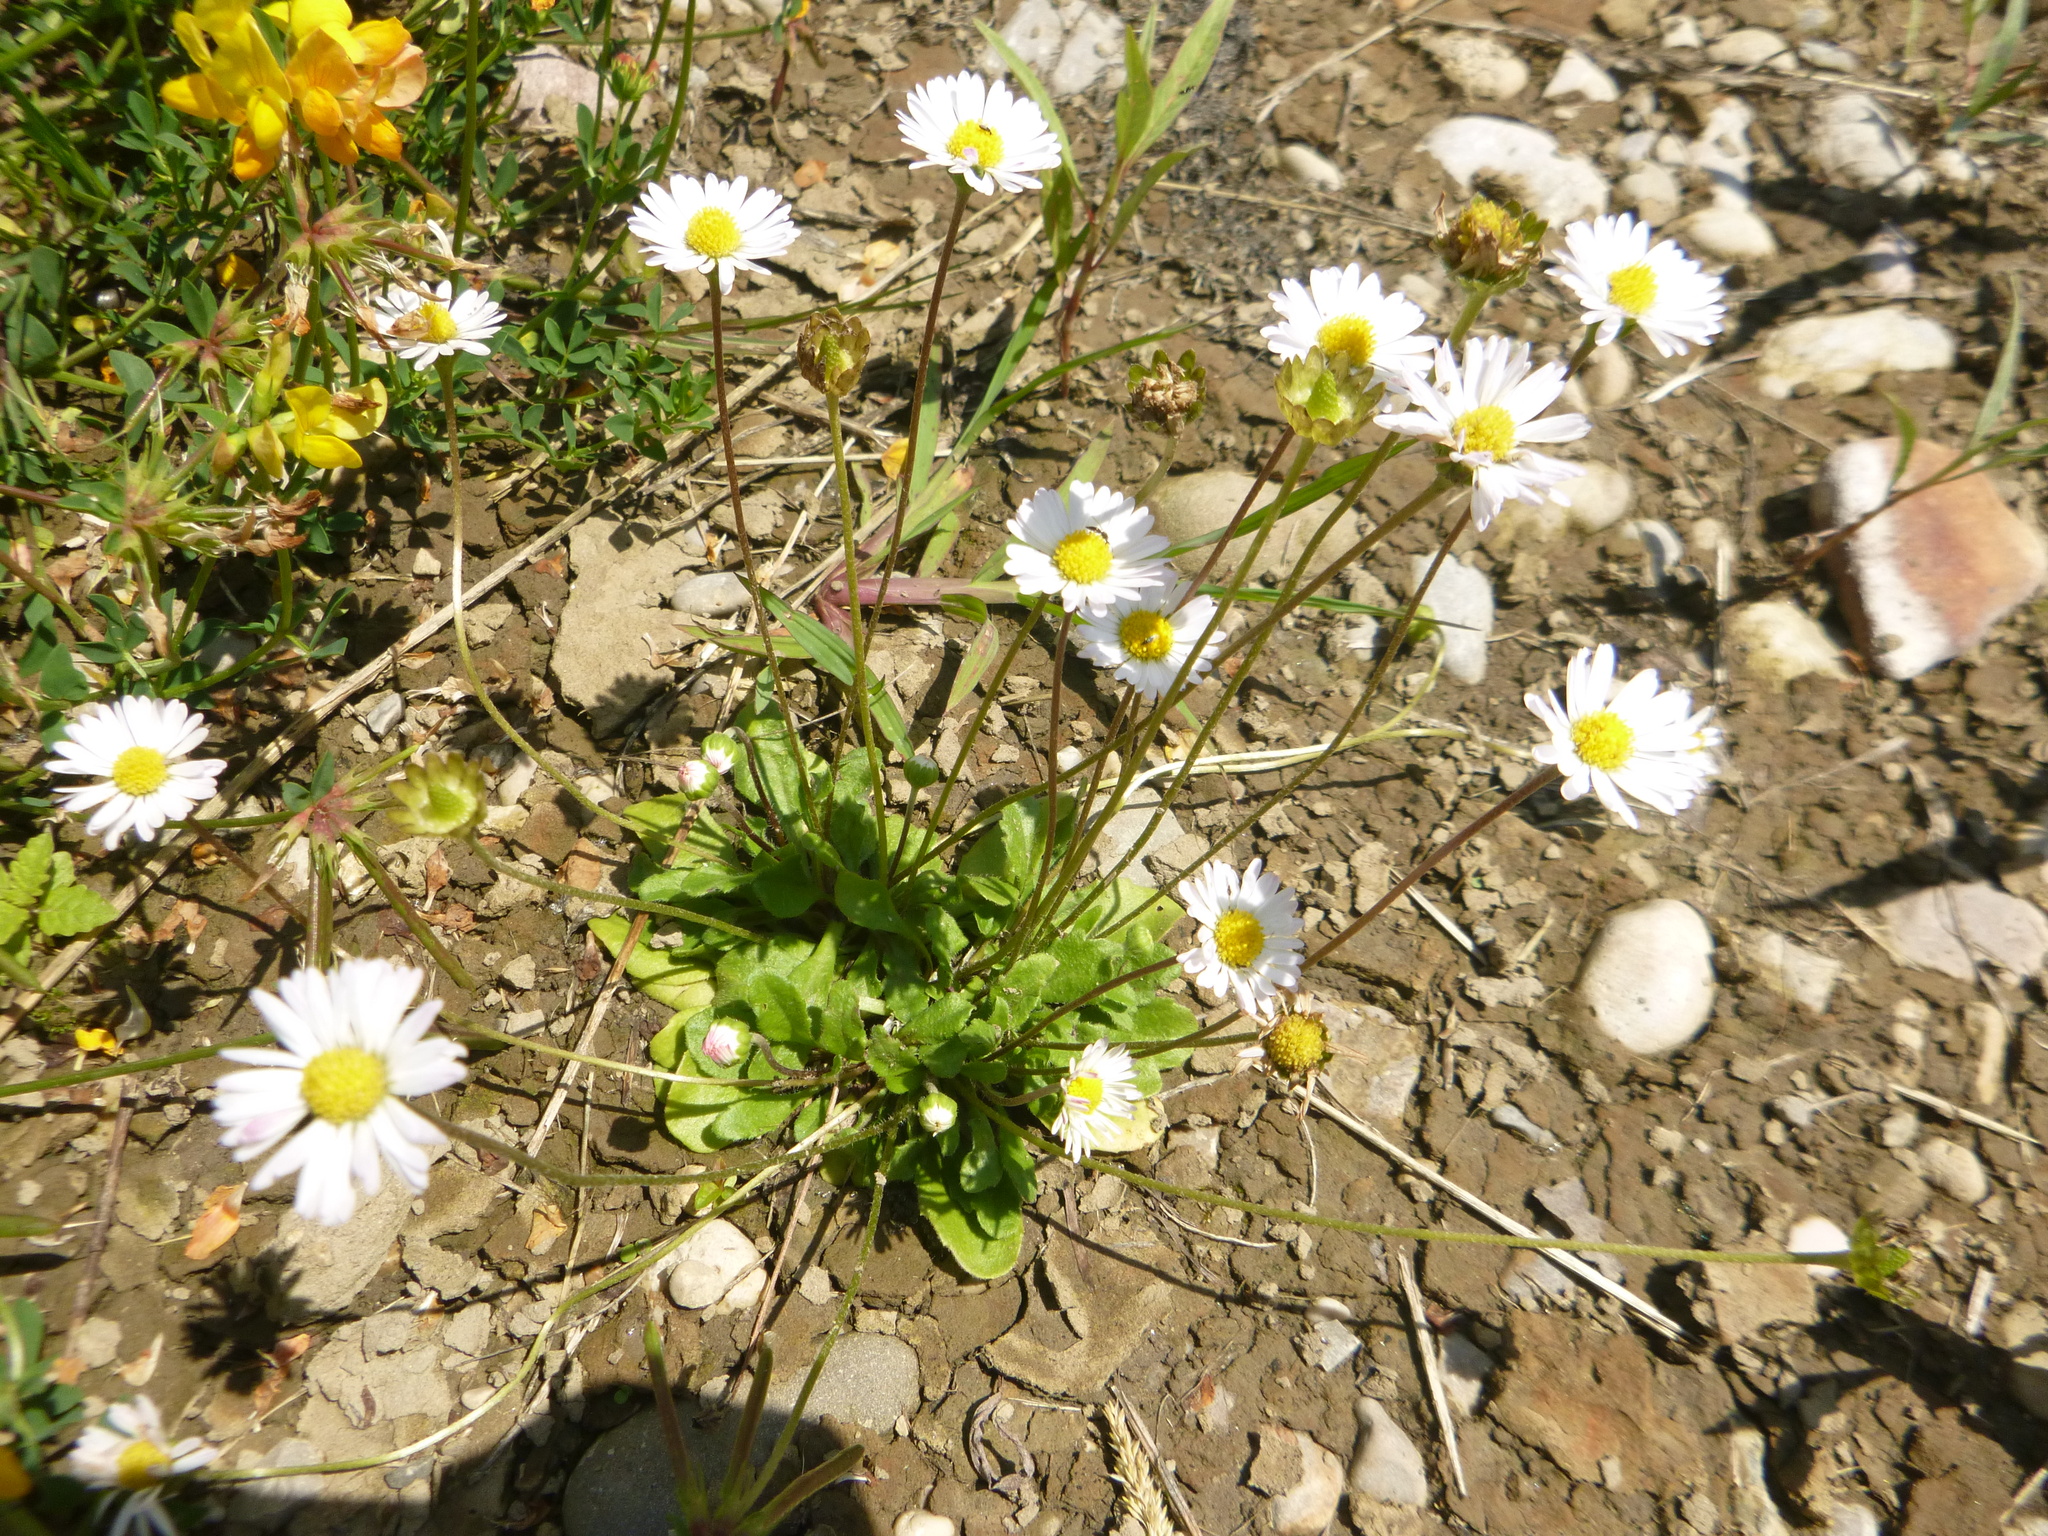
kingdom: Plantae
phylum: Tracheophyta
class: Magnoliopsida
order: Asterales
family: Asteraceae
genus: Bellis
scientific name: Bellis perennis
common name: Lawndaisy
